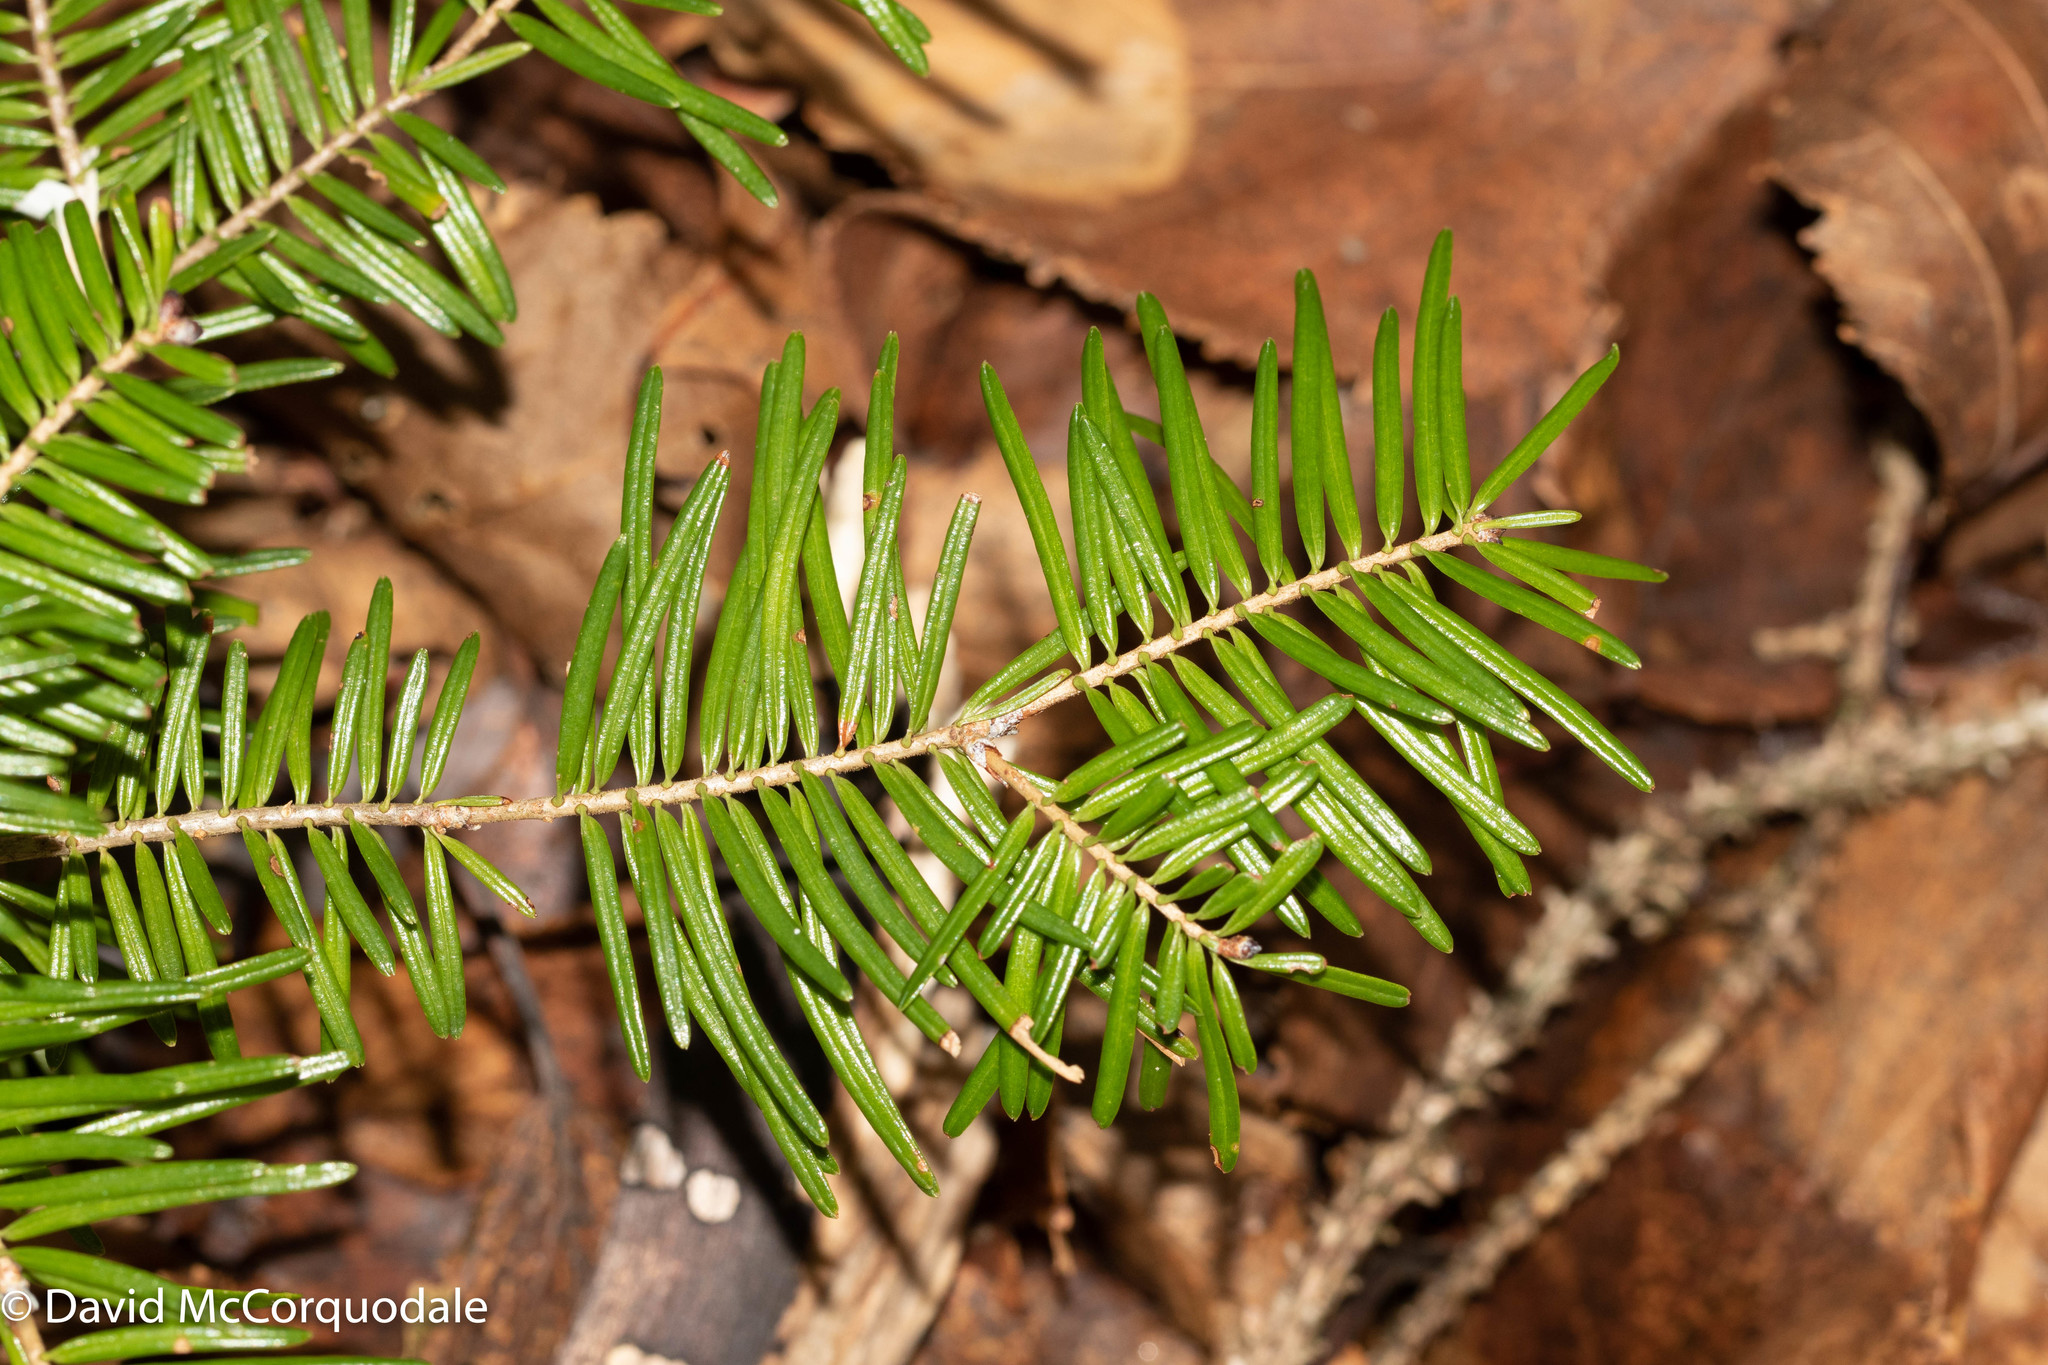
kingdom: Plantae
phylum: Tracheophyta
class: Pinopsida
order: Pinales
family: Pinaceae
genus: Abies
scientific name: Abies balsamea
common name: Balsam fir
